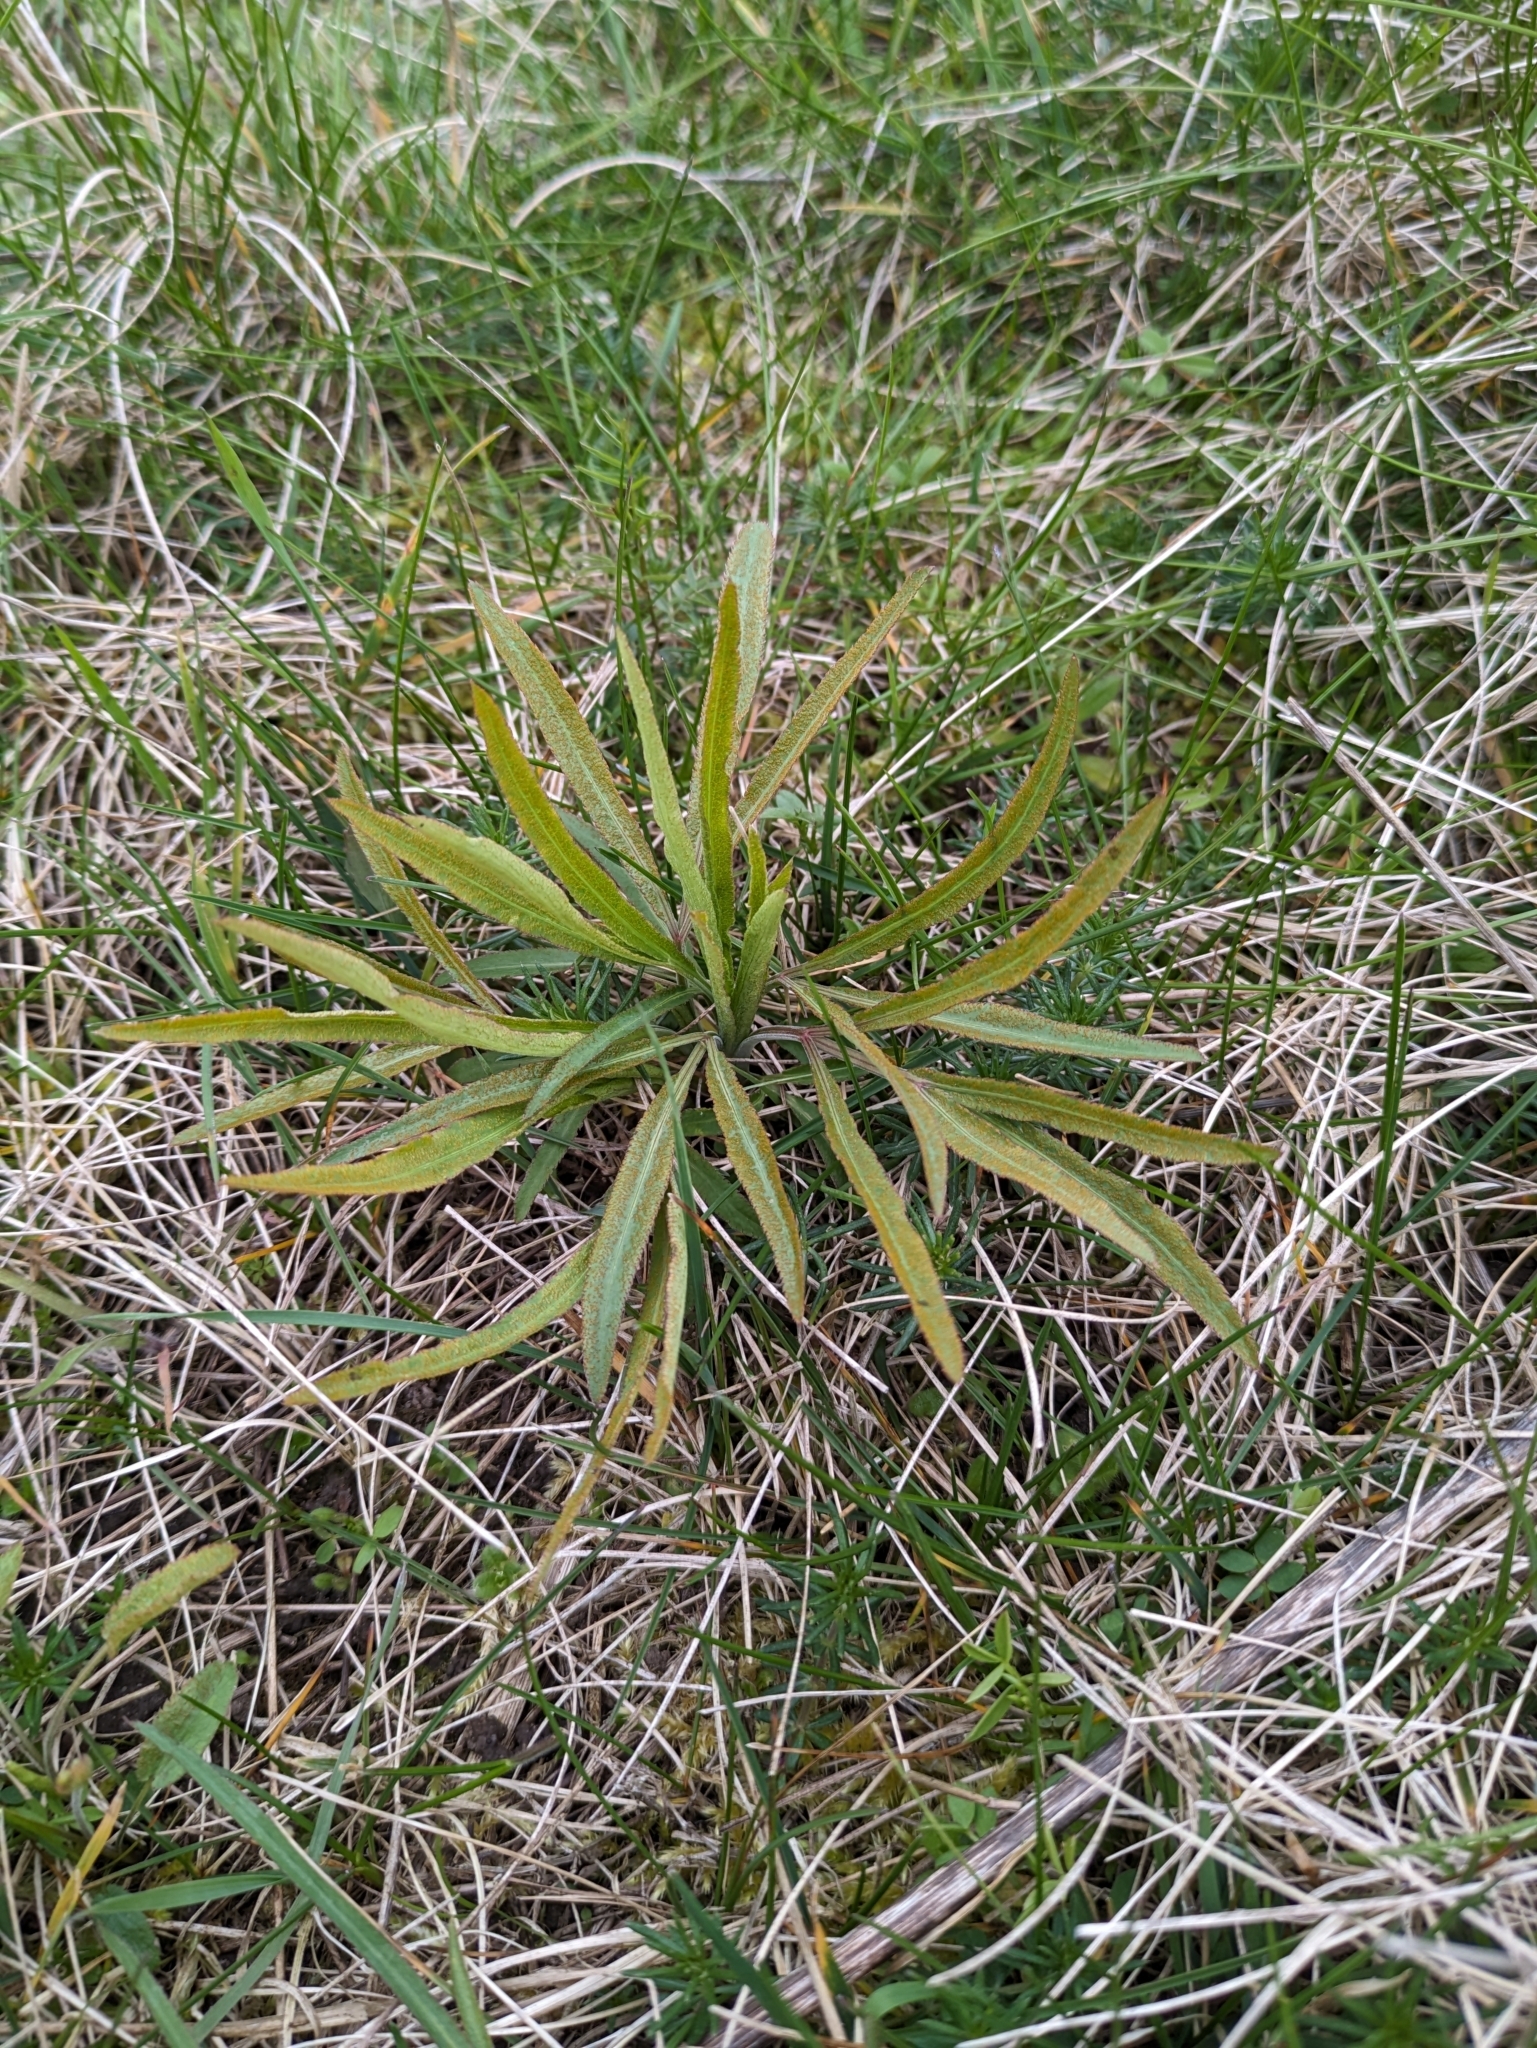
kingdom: Plantae
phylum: Tracheophyta
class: Magnoliopsida
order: Apiales
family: Apiaceae
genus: Falcaria
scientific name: Falcaria vulgaris
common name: Longleaf
